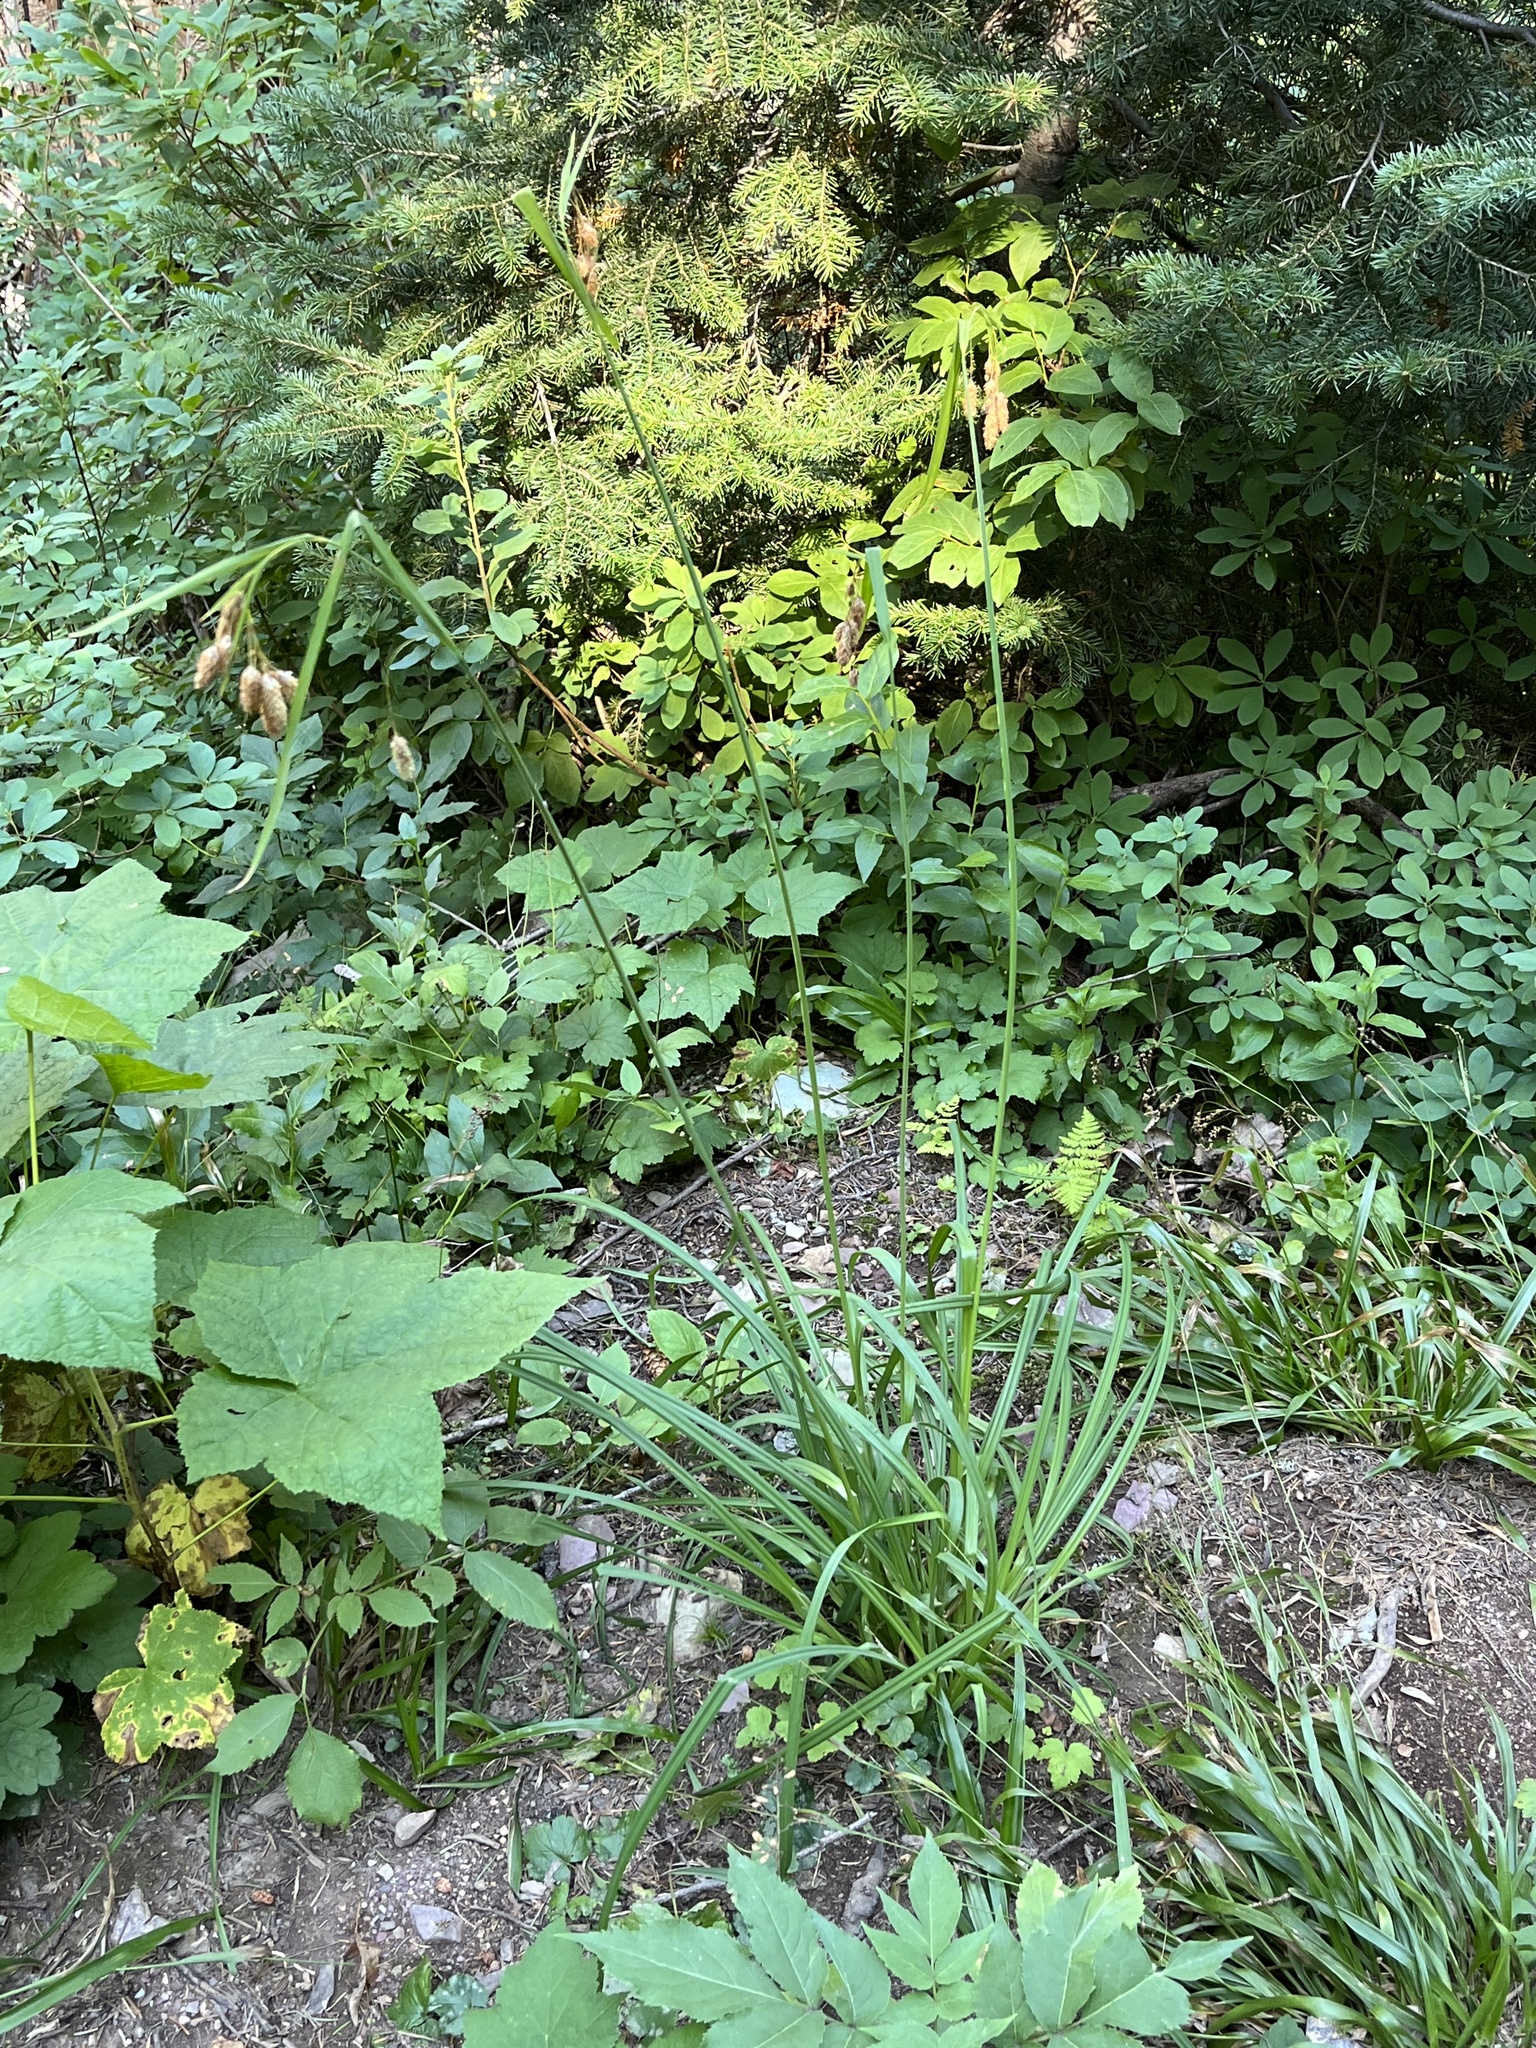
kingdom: Plantae
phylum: Tracheophyta
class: Liliopsida
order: Poales
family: Cyperaceae
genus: Carex
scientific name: Carex mertensii
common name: Mertens' sedge
